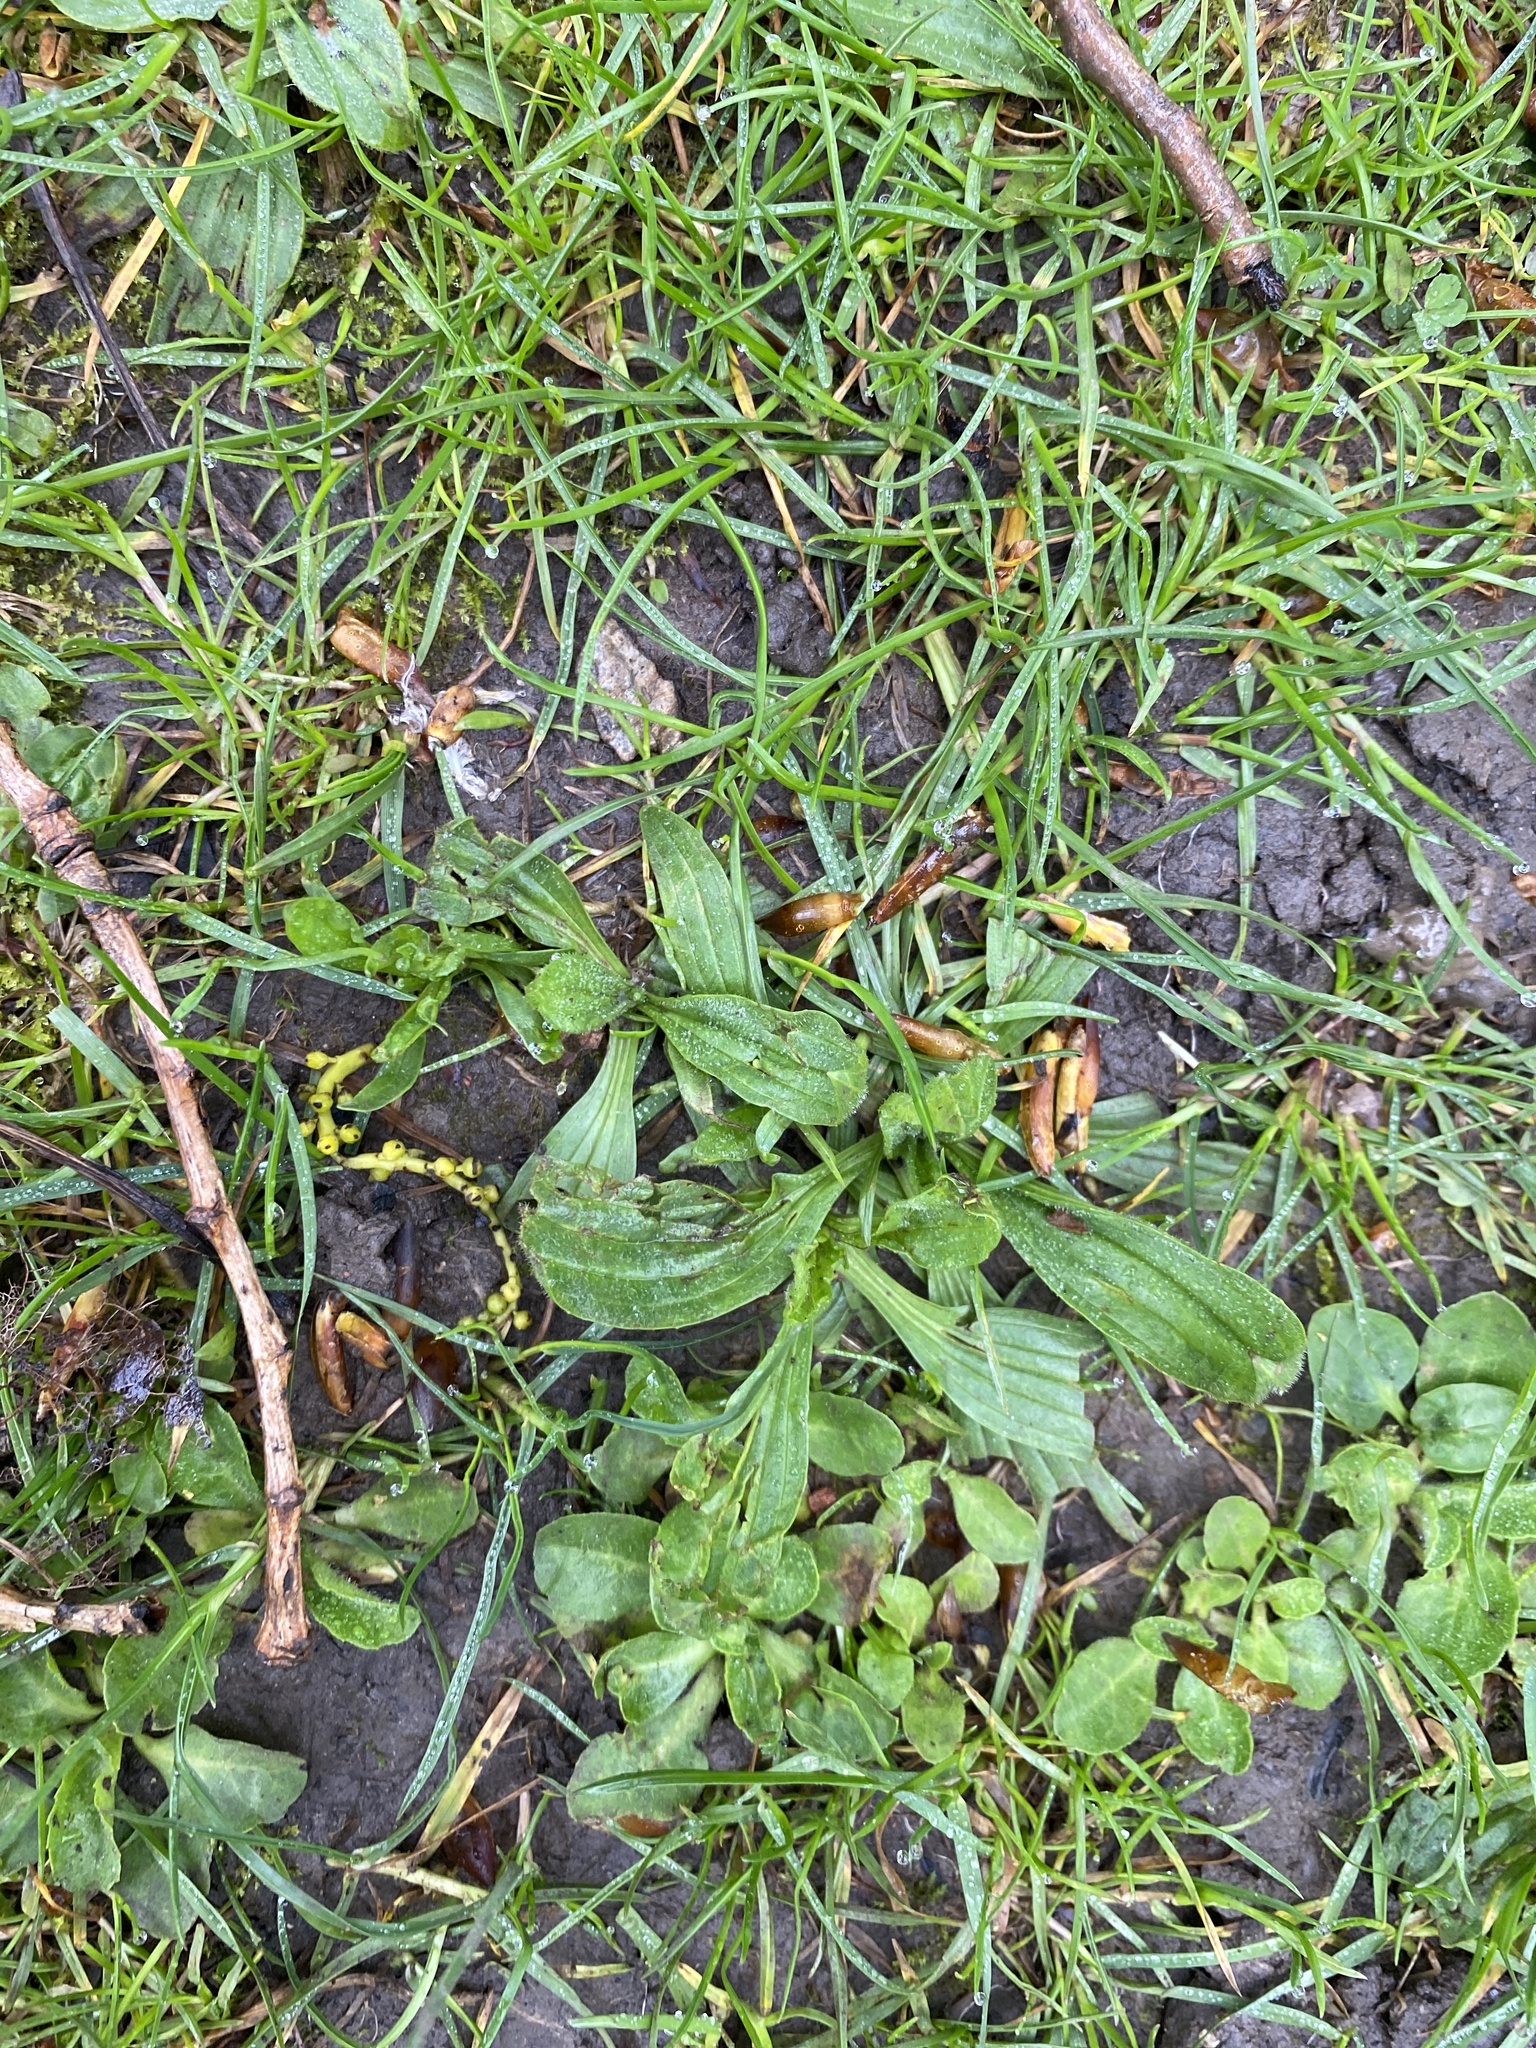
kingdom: Plantae
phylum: Tracheophyta
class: Magnoliopsida
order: Lamiales
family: Plantaginaceae
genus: Plantago
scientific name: Plantago lanceolata
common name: Ribwort plantain
